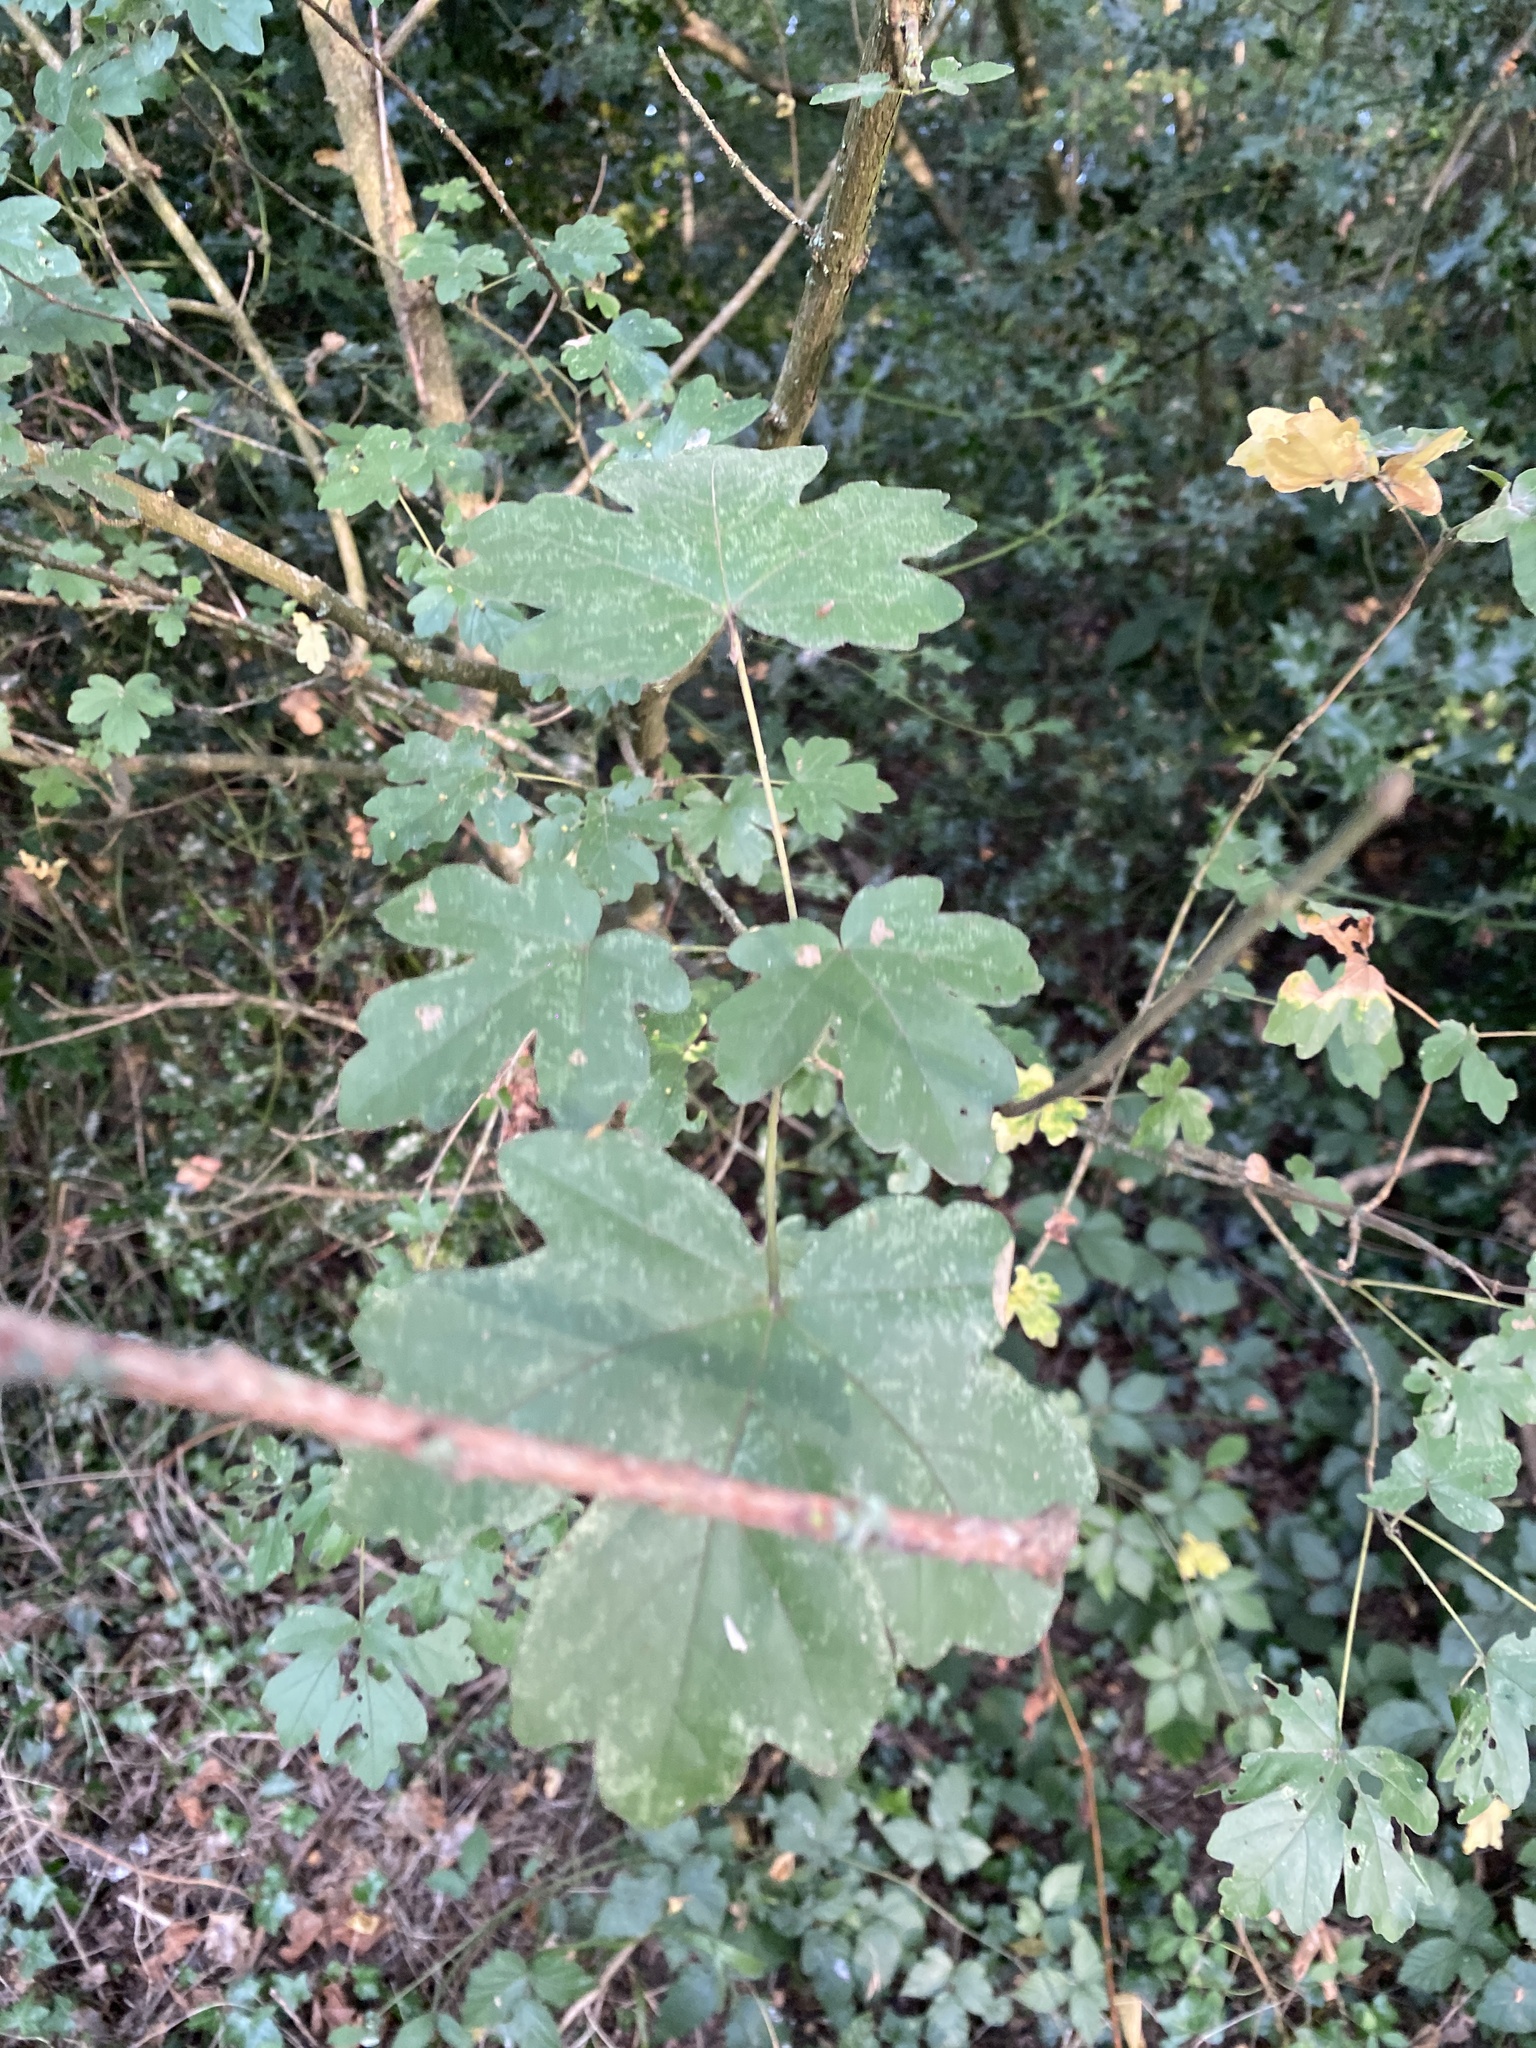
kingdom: Plantae
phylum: Tracheophyta
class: Magnoliopsida
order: Sapindales
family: Sapindaceae
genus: Acer
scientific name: Acer campestre
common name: Field maple
